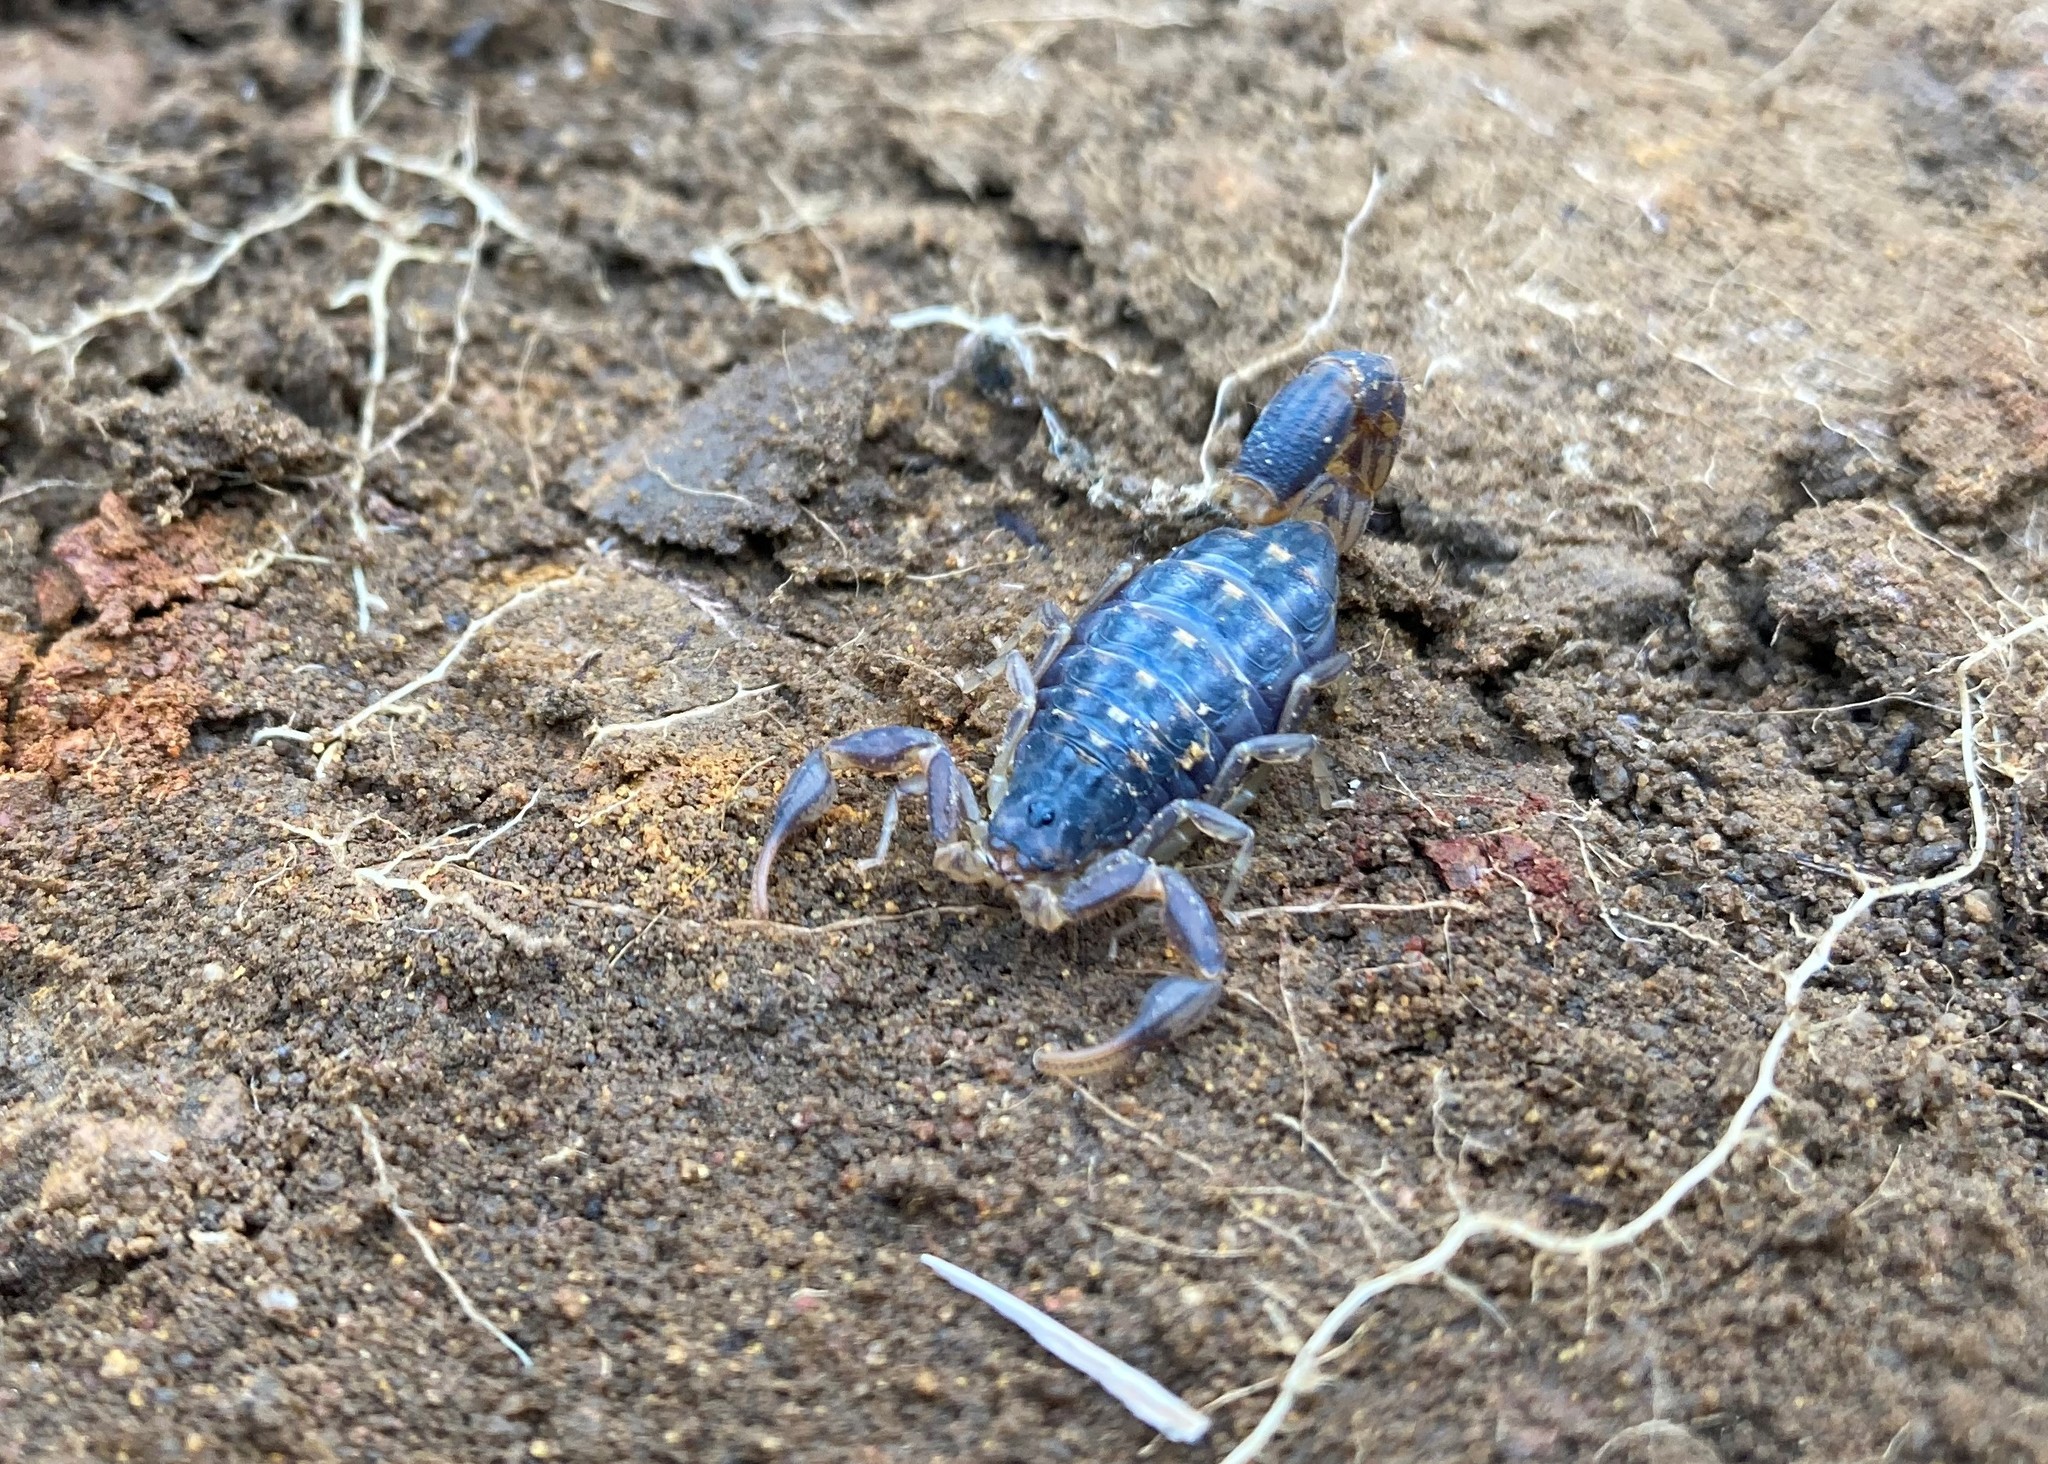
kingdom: Animalia
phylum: Arthropoda
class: Arachnida
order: Scorpiones
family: Buthidae
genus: Uroplectes
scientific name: Uroplectes lineatus
